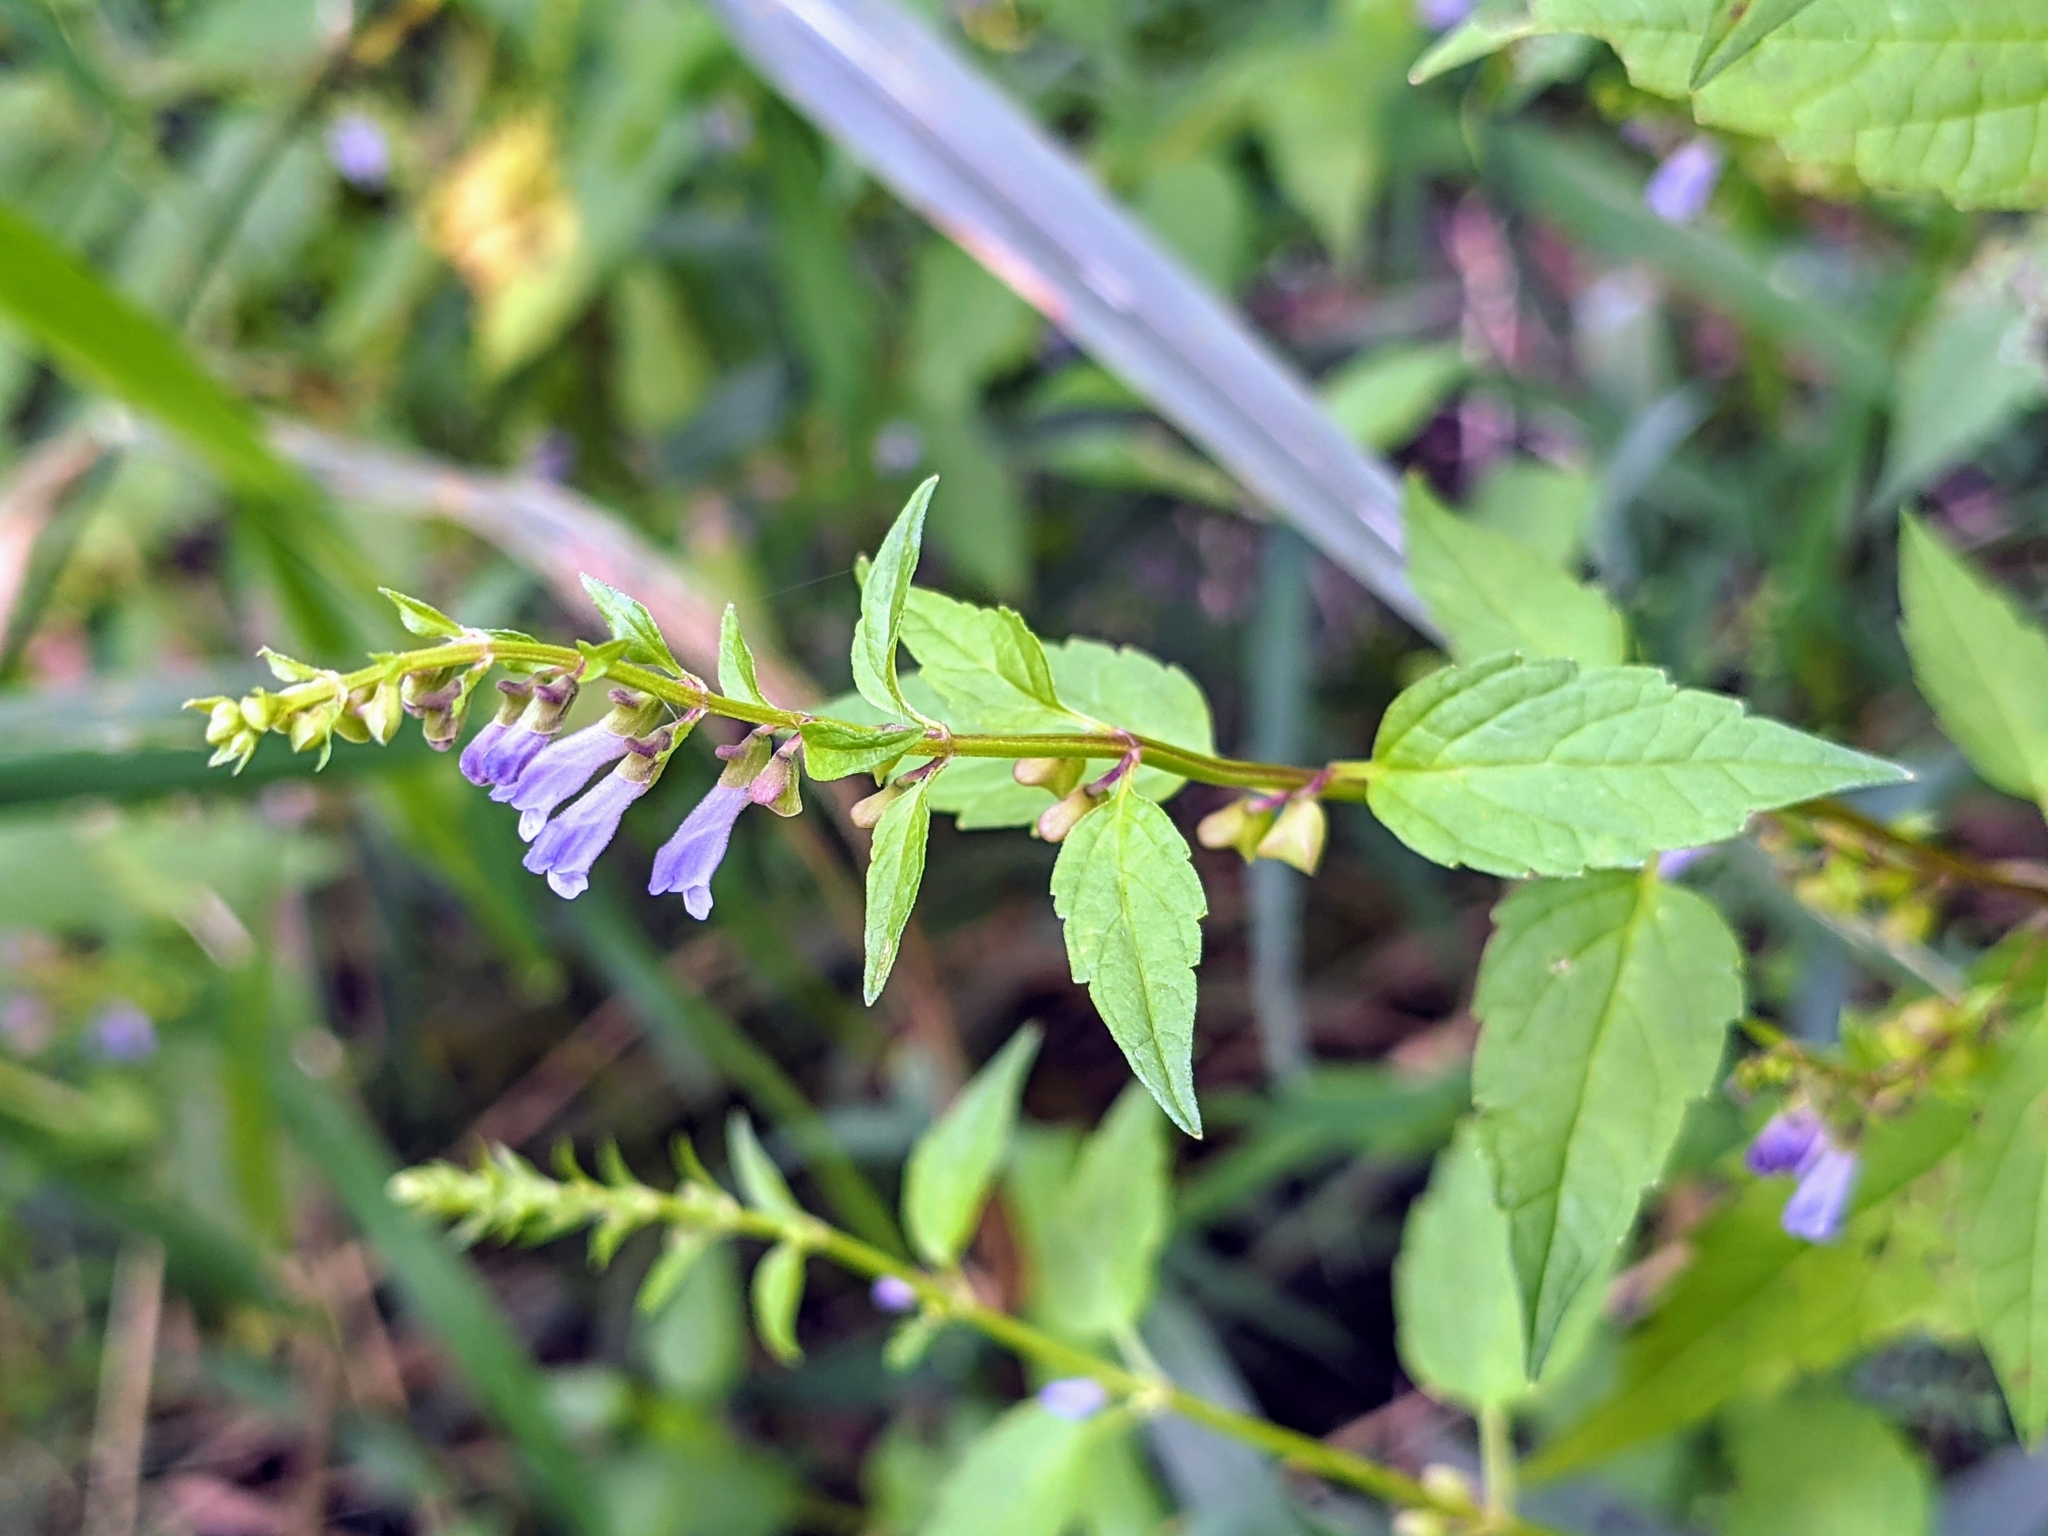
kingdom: Plantae
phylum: Tracheophyta
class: Magnoliopsida
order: Lamiales
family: Lamiaceae
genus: Scutellaria
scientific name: Scutellaria lateriflora
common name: Blue skullcap
